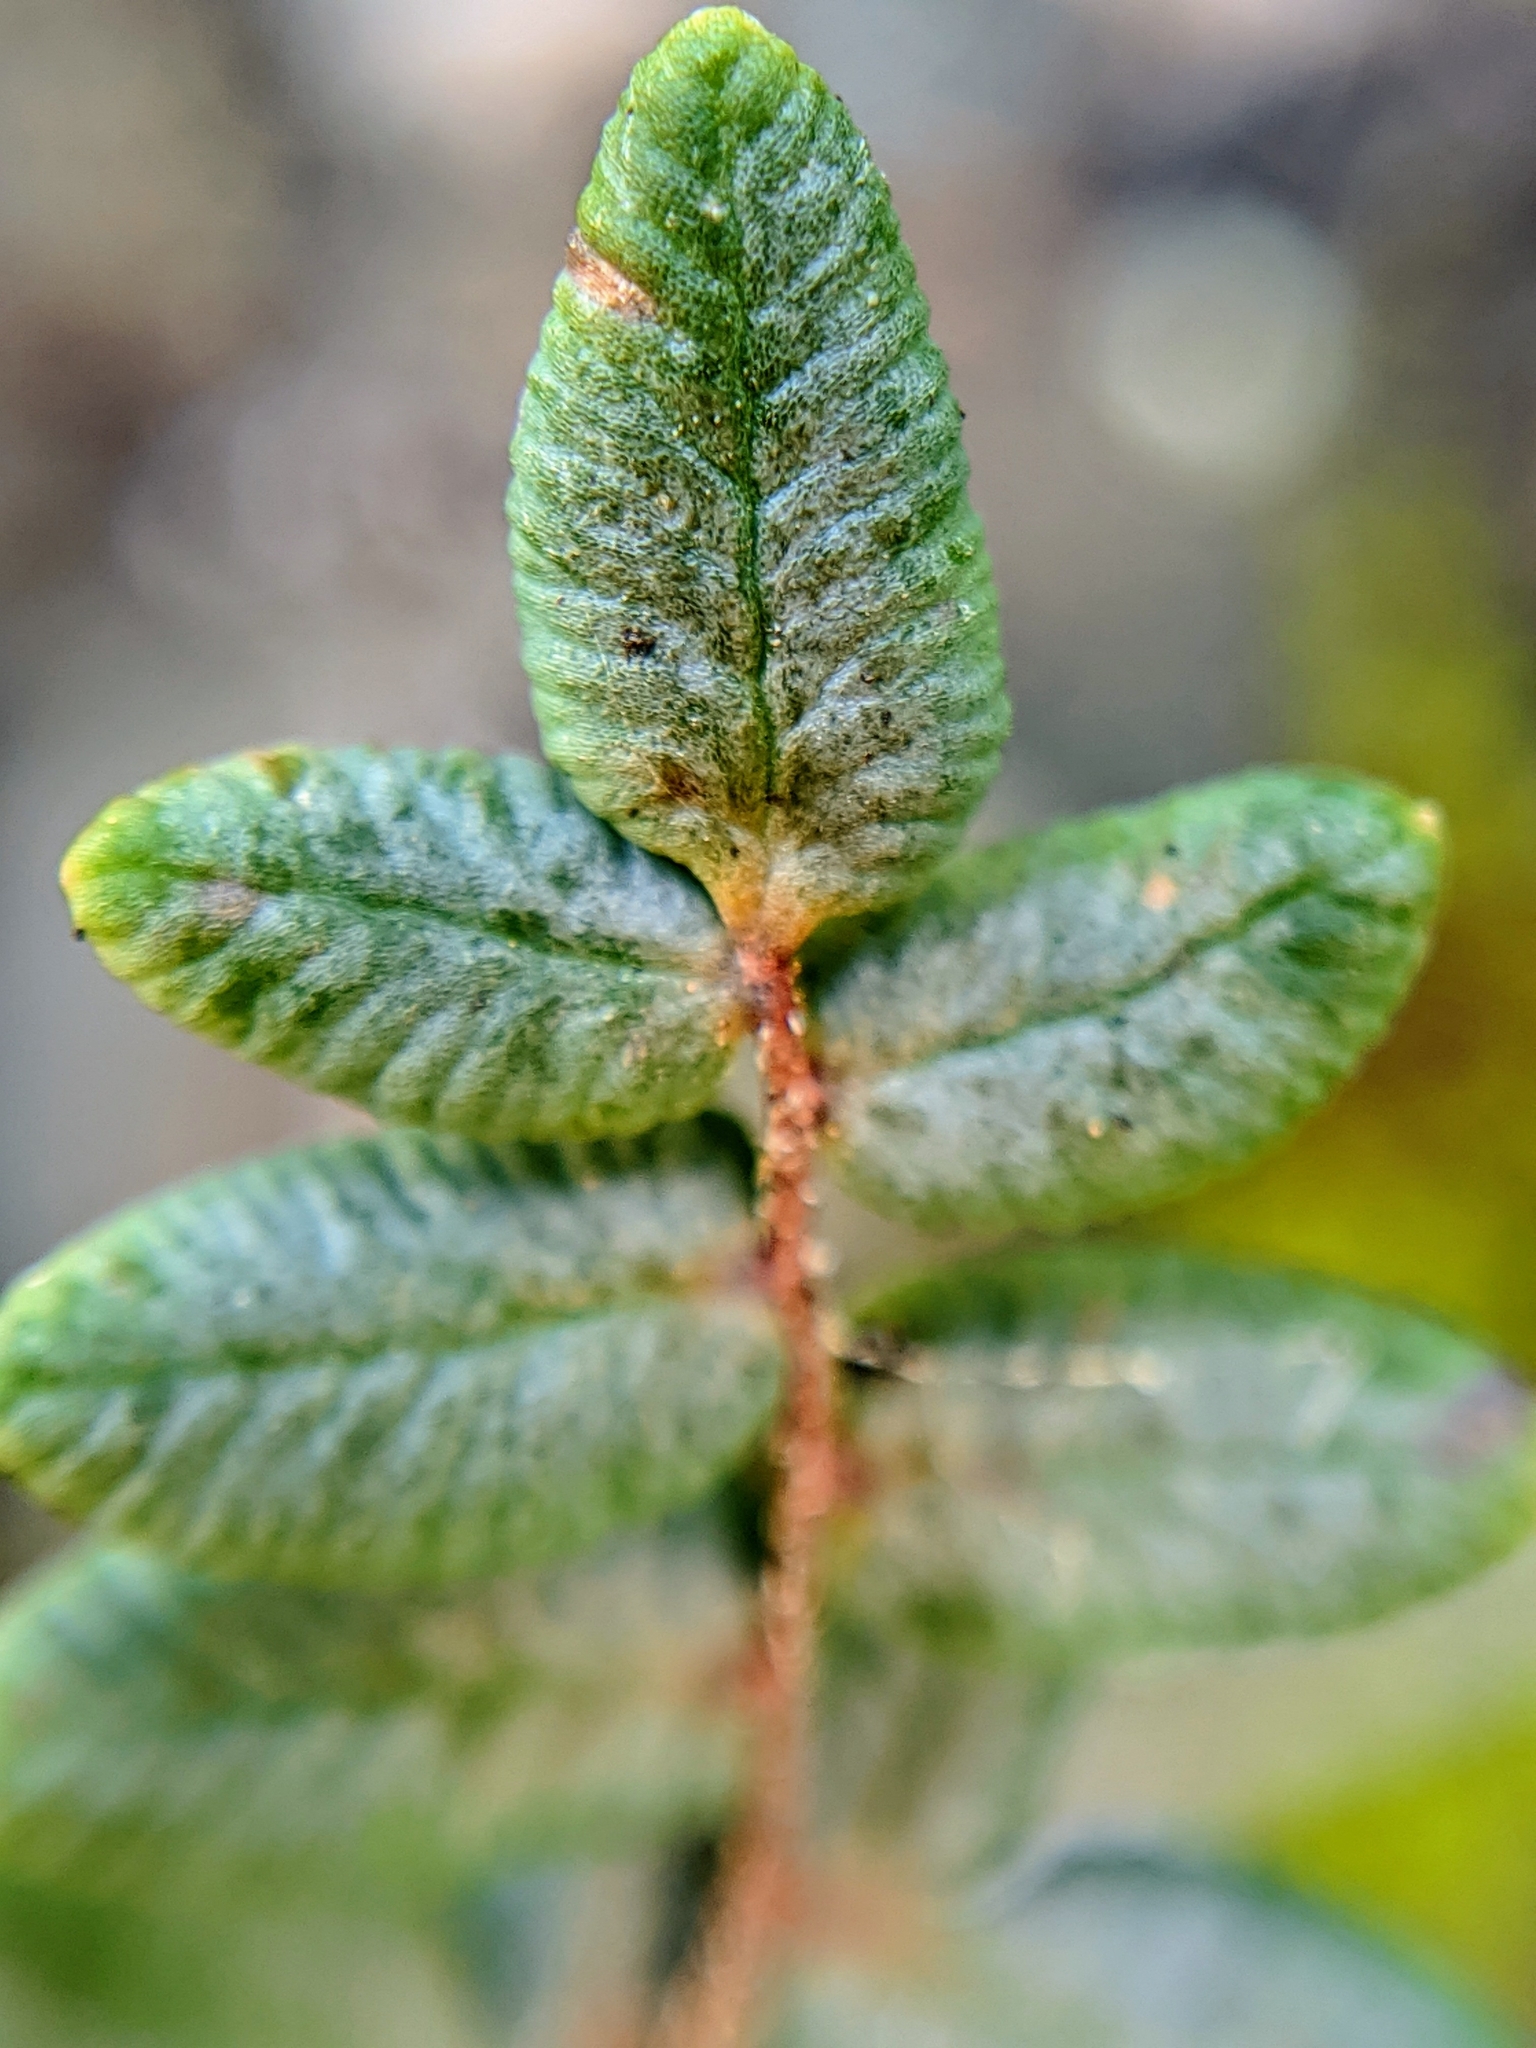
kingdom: Plantae
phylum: Tracheophyta
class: Polypodiopsida
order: Polypodiales
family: Pteridaceae
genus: Pellaea
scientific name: Pellaea andromedifolia
